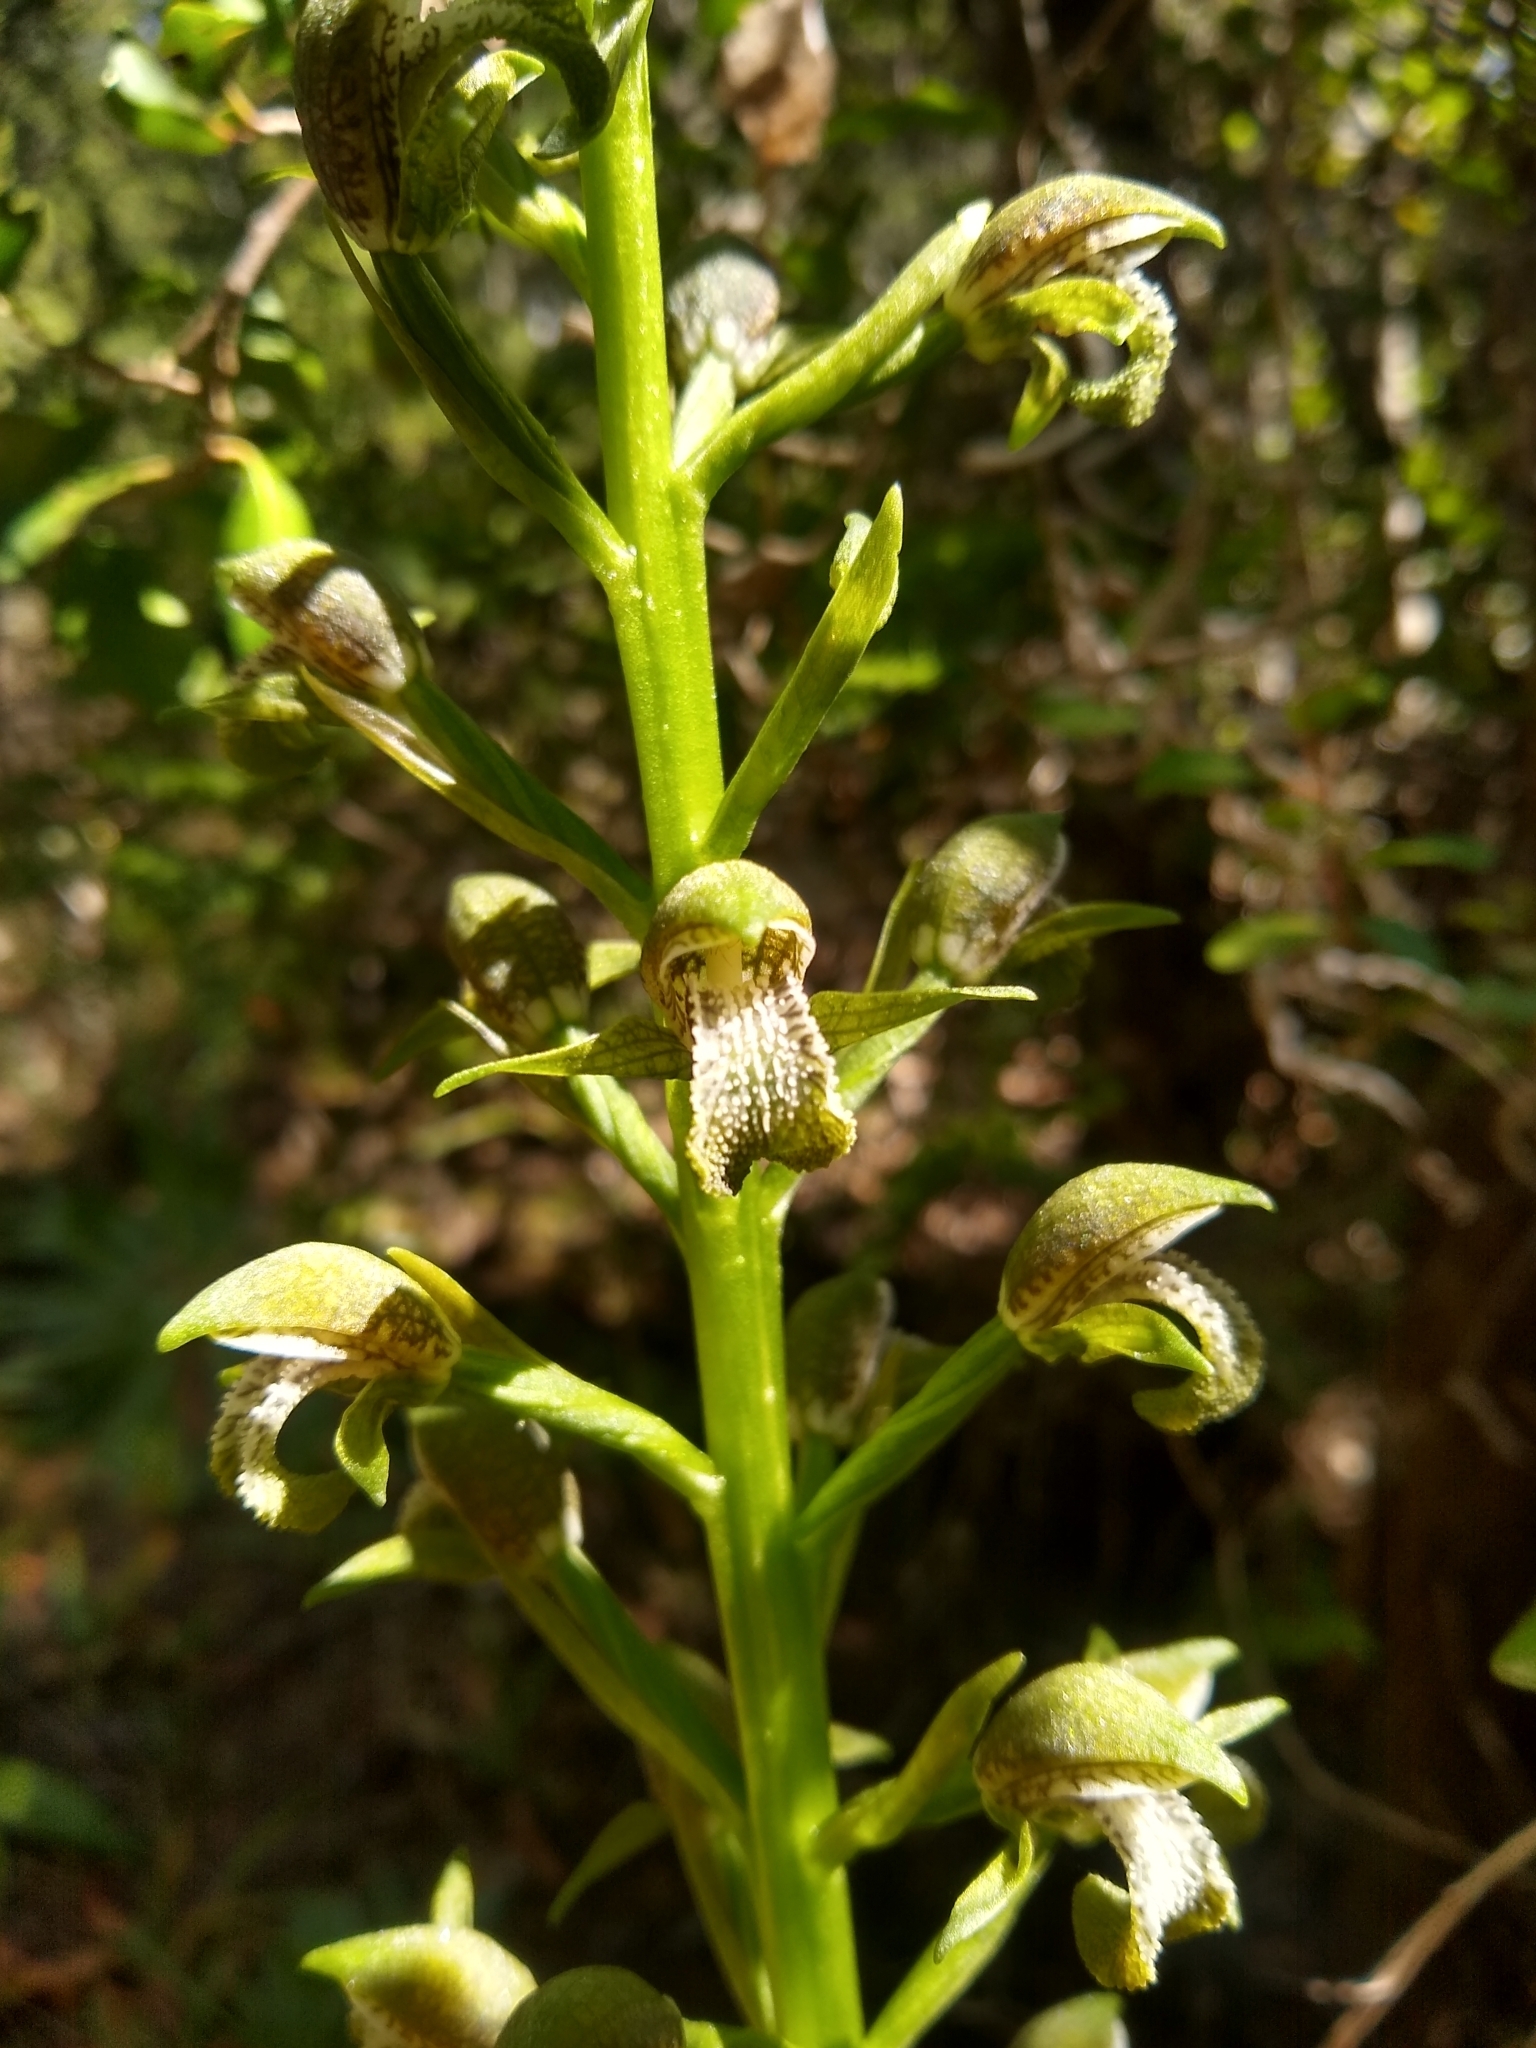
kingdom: Plantae
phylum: Tracheophyta
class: Liliopsida
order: Asparagales
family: Orchidaceae
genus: Chloraea
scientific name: Chloraea cylindrostachya
